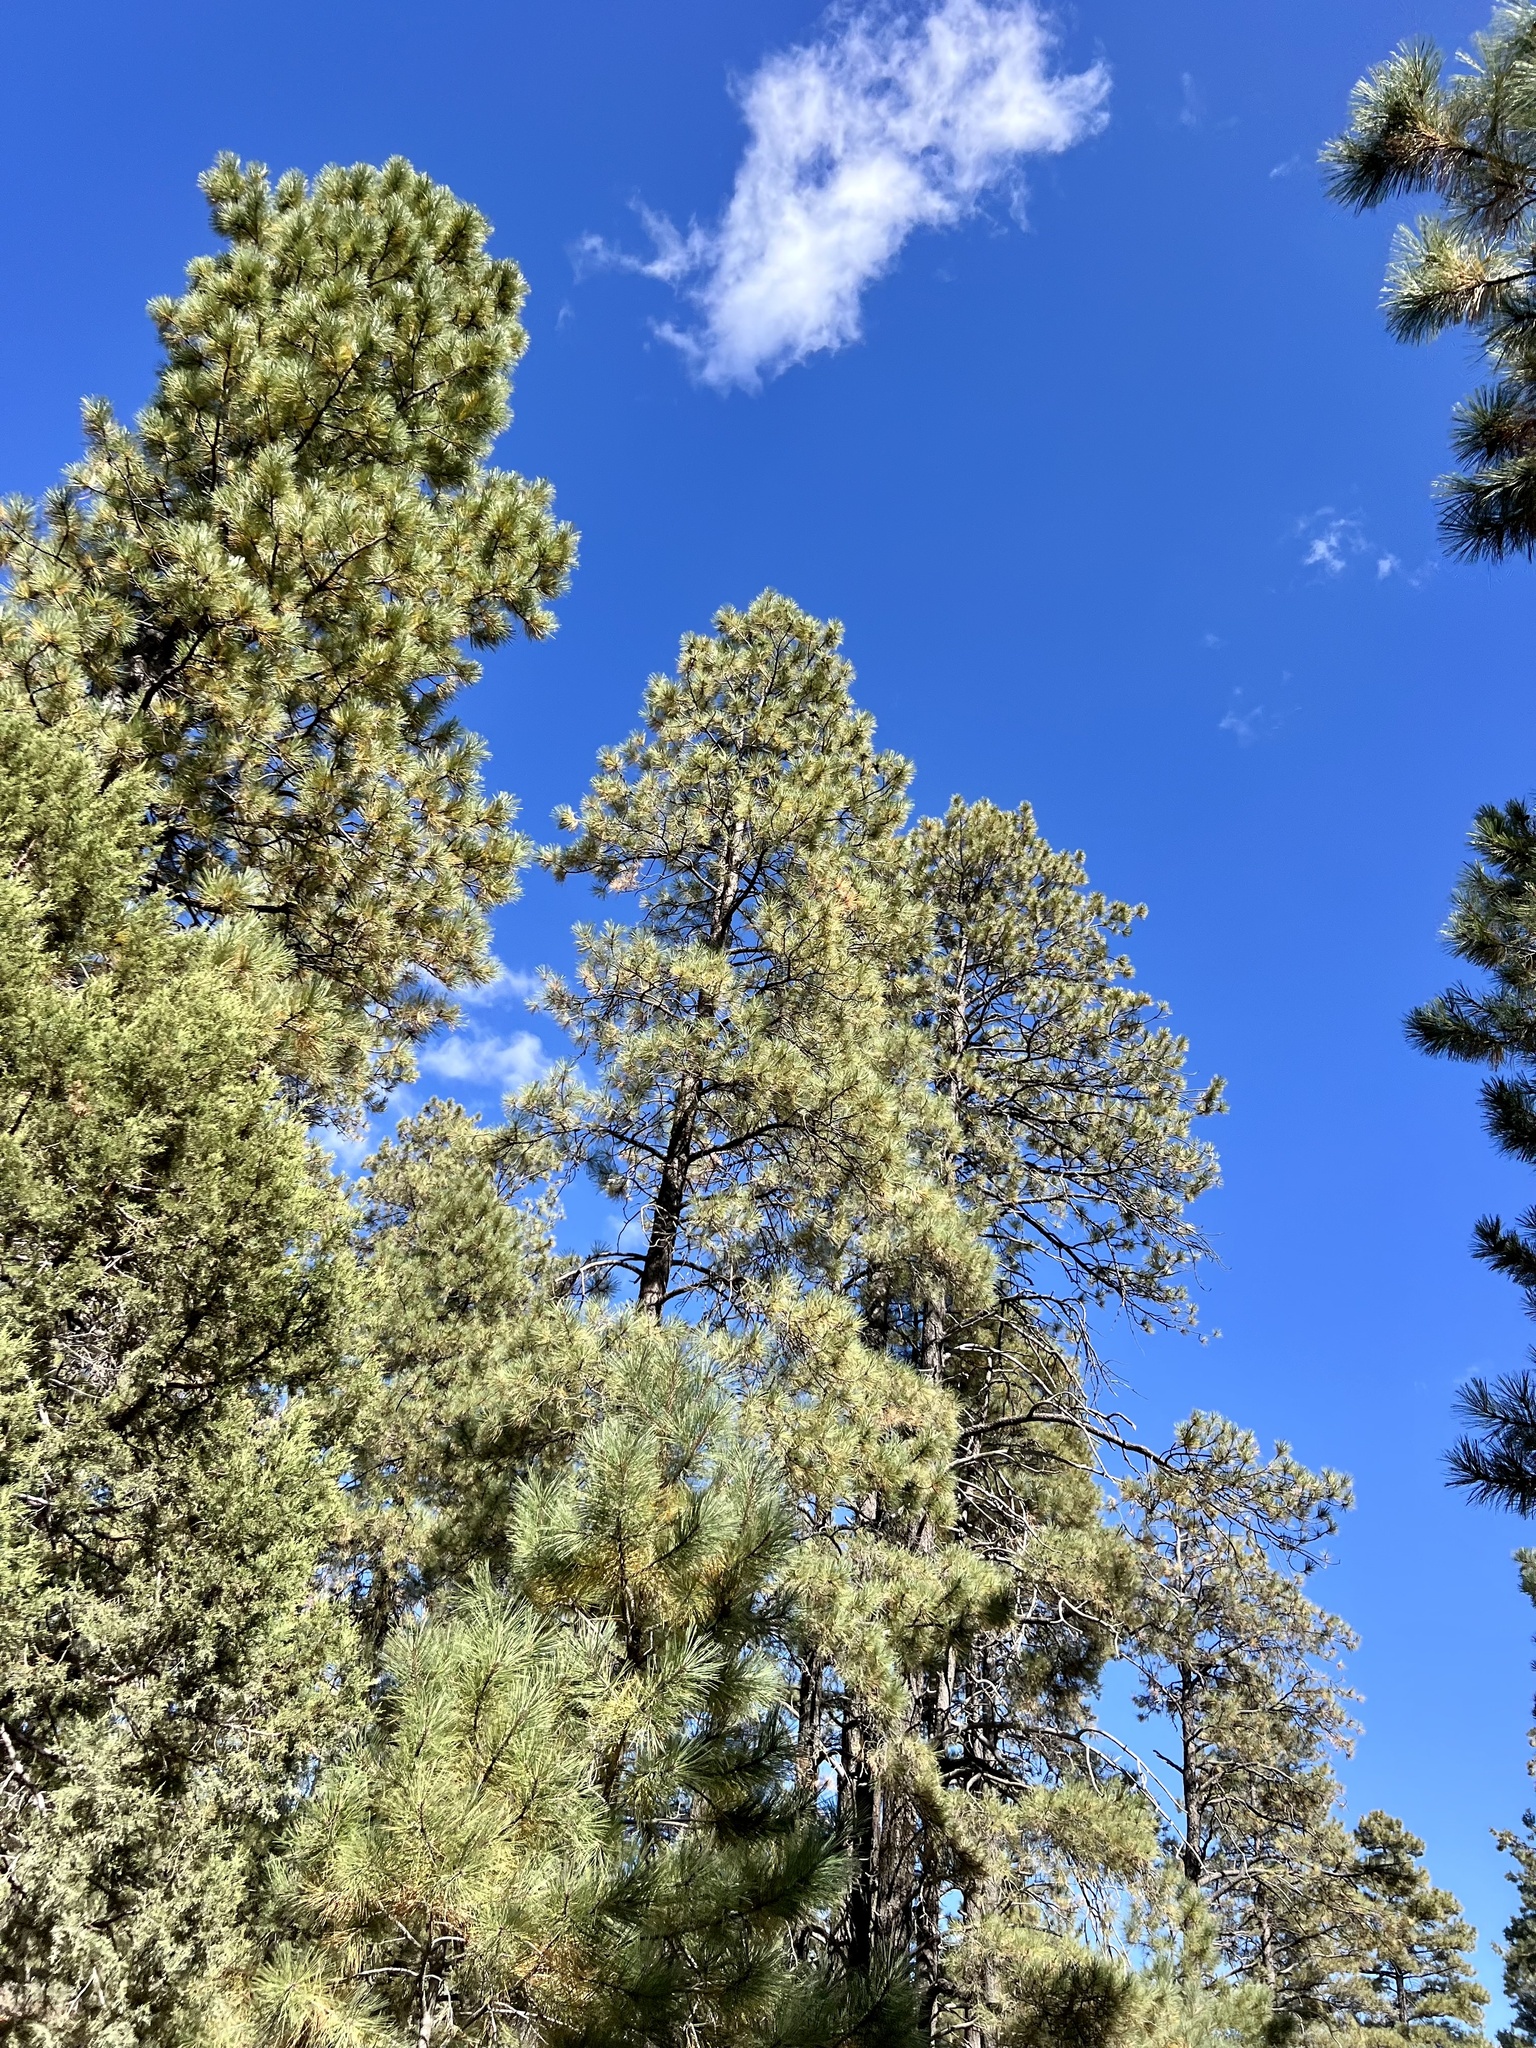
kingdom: Plantae
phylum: Tracheophyta
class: Pinopsida
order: Pinales
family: Pinaceae
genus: Pinus
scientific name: Pinus ponderosa
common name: Western yellow-pine
